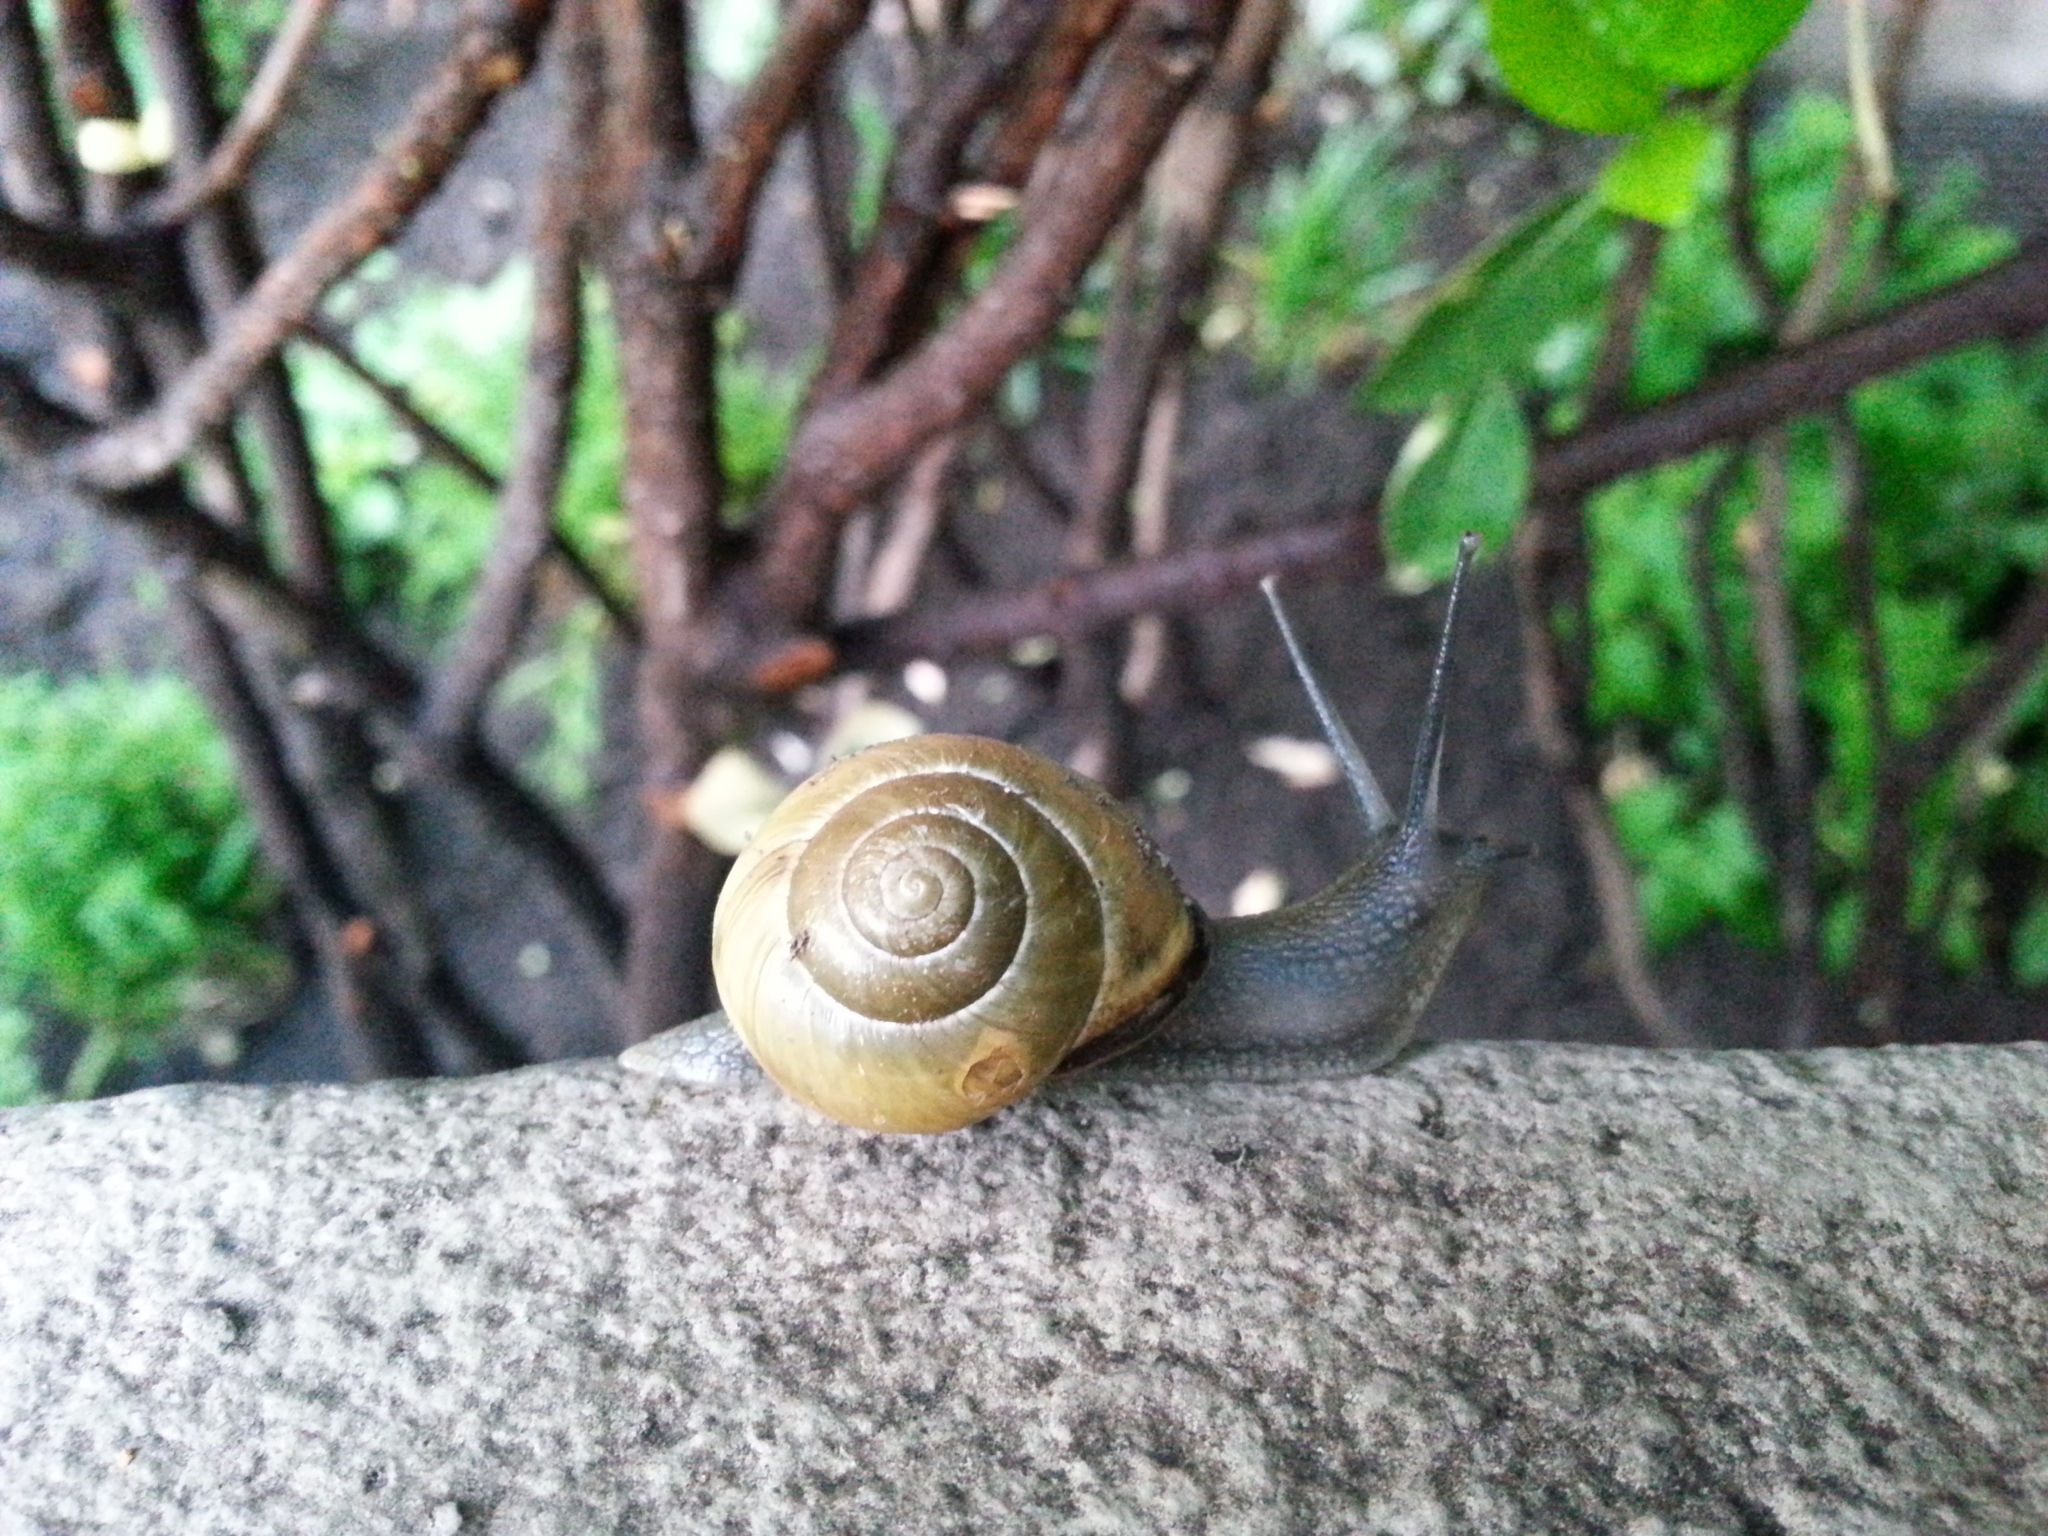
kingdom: Animalia
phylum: Mollusca
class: Gastropoda
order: Stylommatophora
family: Helicidae
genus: Cepaea
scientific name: Cepaea nemoralis
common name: Grovesnail
